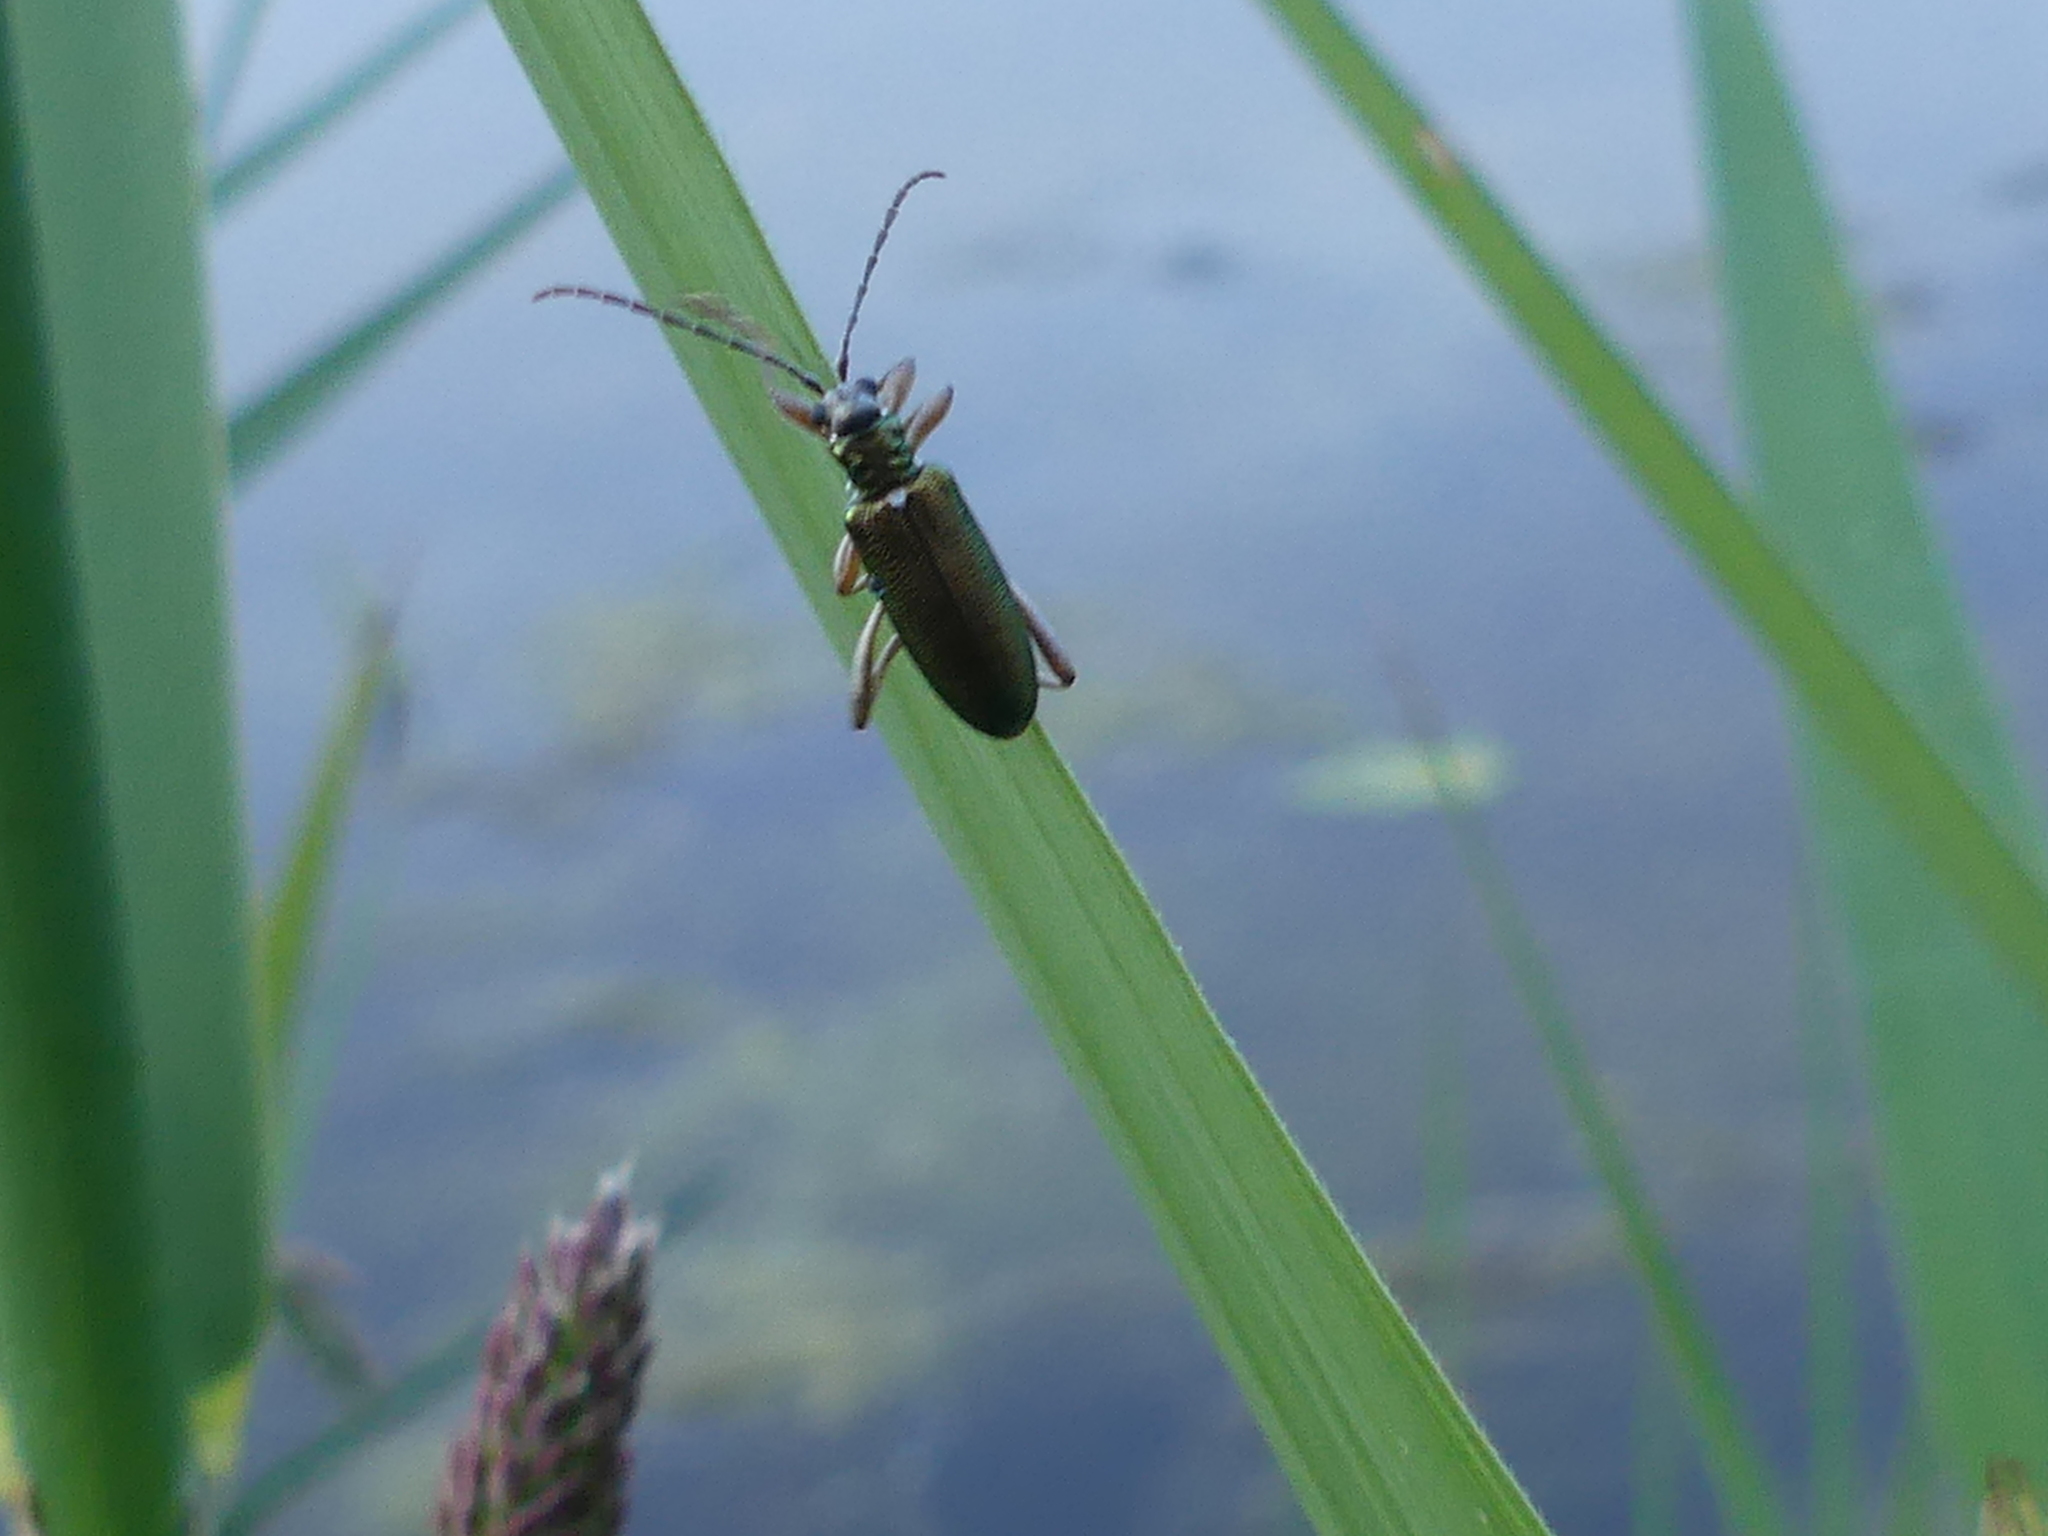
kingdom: Animalia
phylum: Arthropoda
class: Insecta
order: Coleoptera
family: Chrysomelidae
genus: Donacia
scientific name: Donacia clavipes
